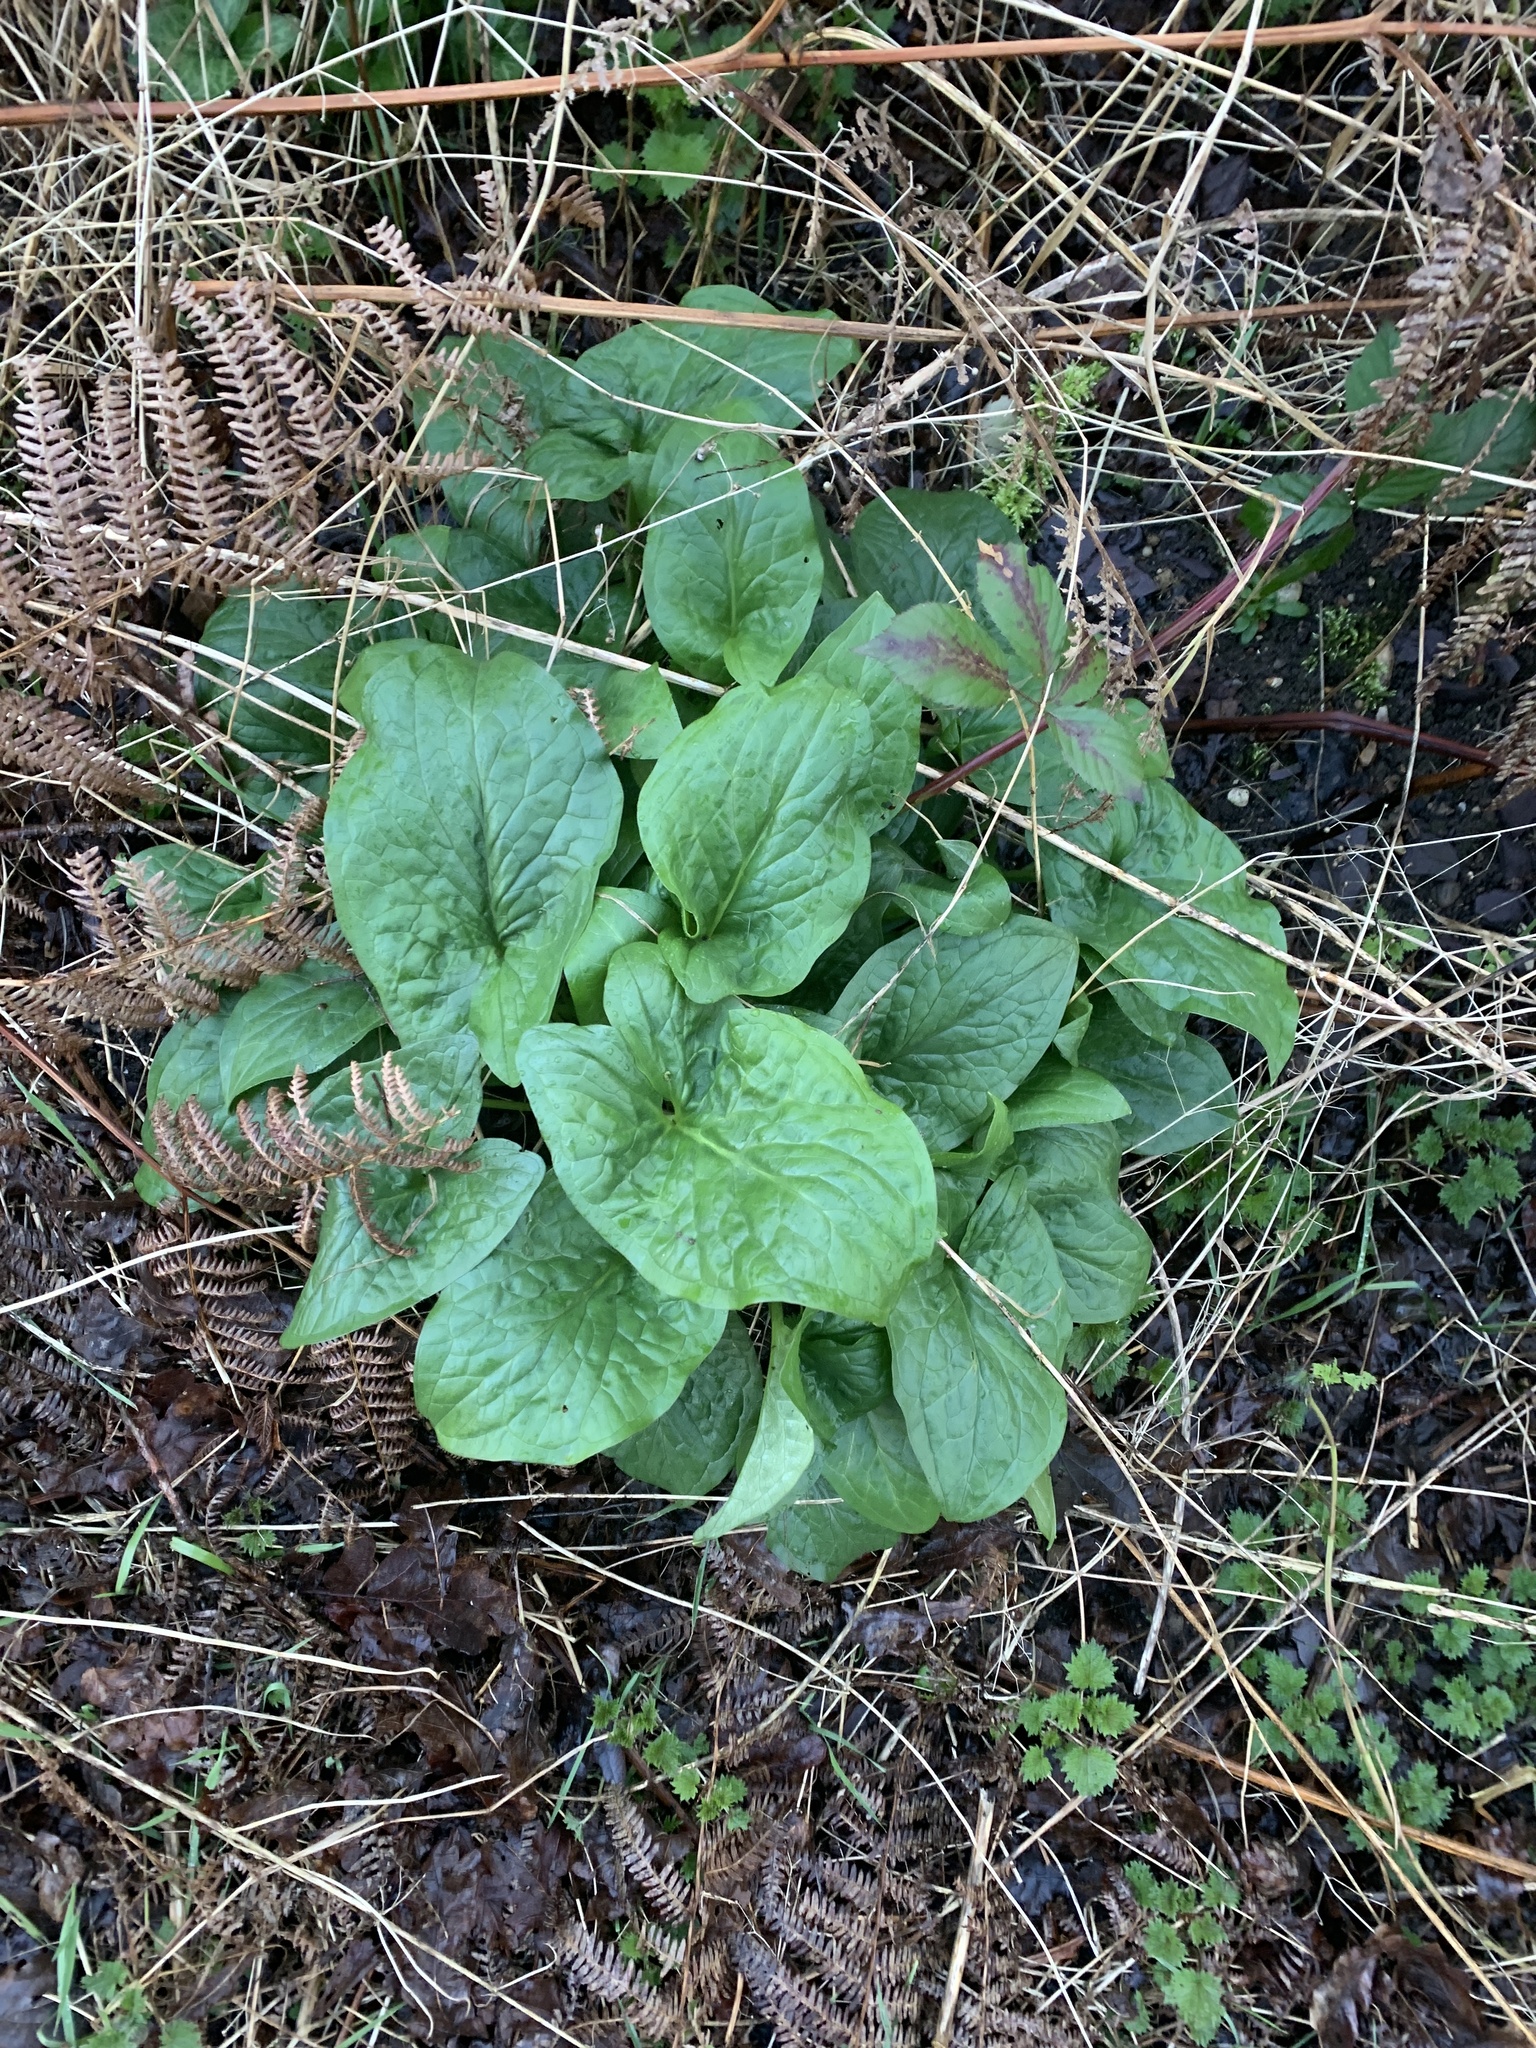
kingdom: Plantae
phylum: Tracheophyta
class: Liliopsida
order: Alismatales
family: Araceae
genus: Arum
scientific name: Arum maculatum
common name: Lords-and-ladies
